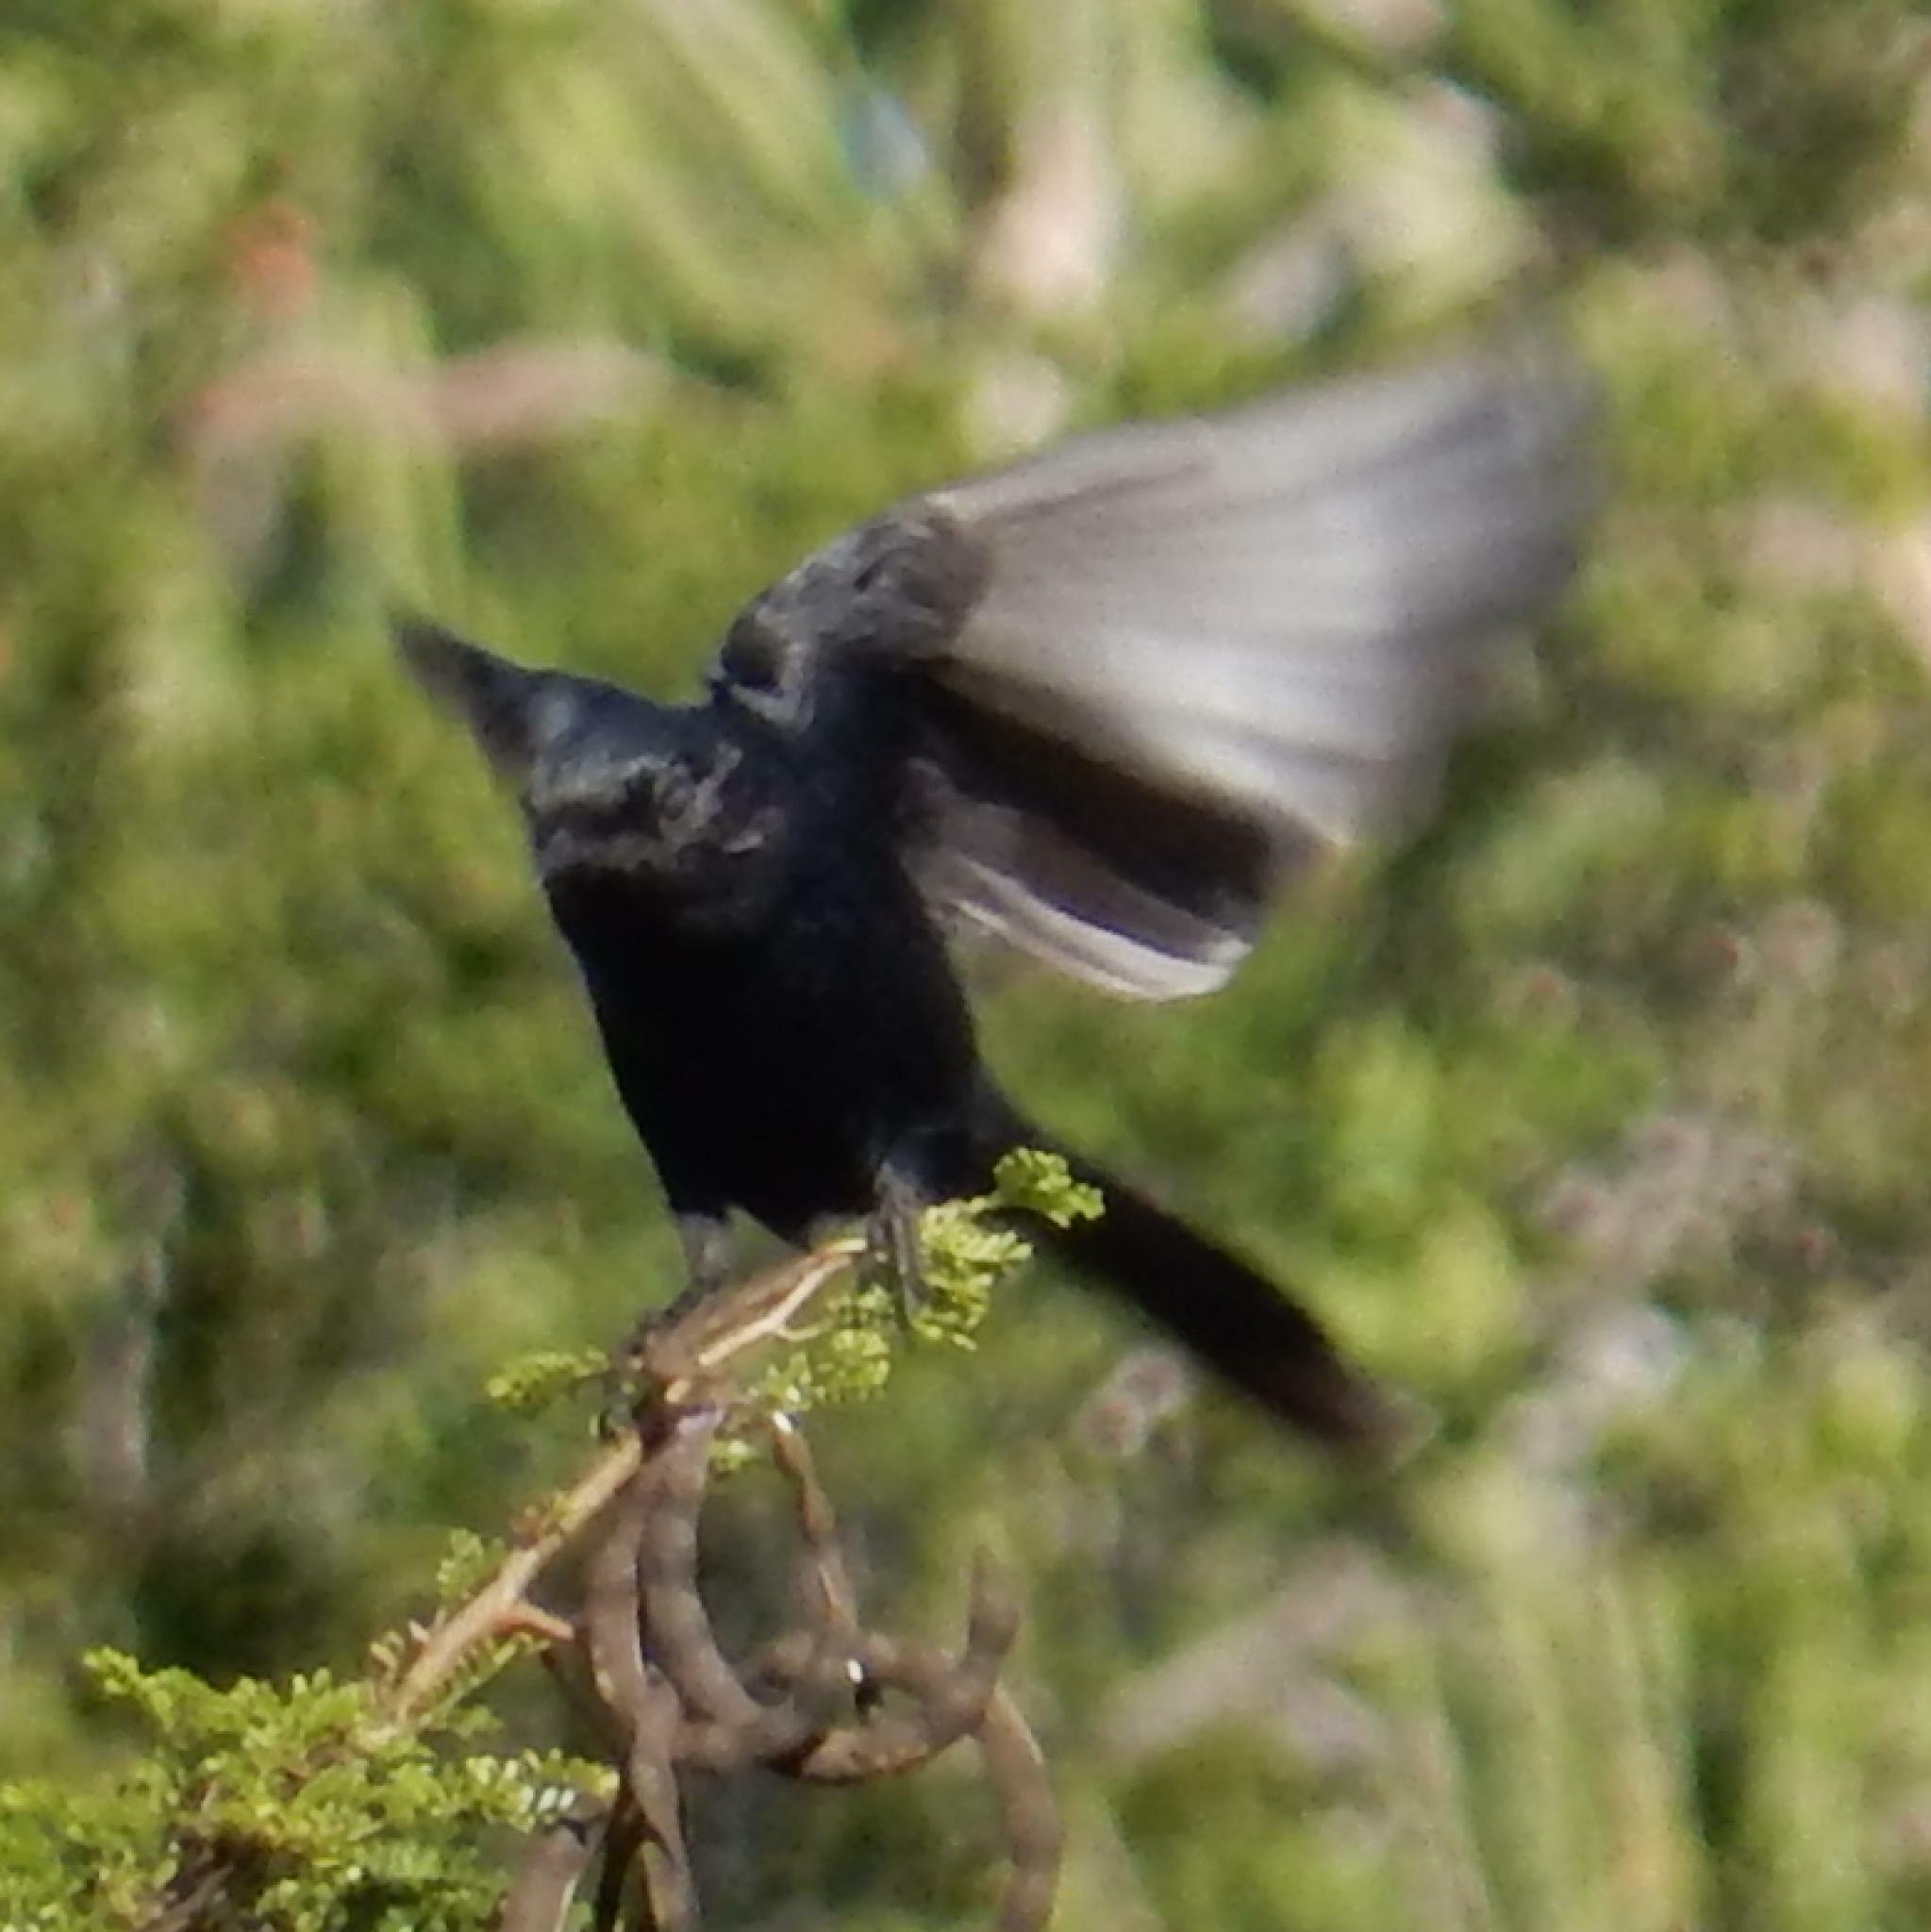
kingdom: Animalia
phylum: Chordata
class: Aves
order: Passeriformes
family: Dicruridae
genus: Dicrurus
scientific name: Dicrurus adsimilis
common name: Fork-tailed drongo
